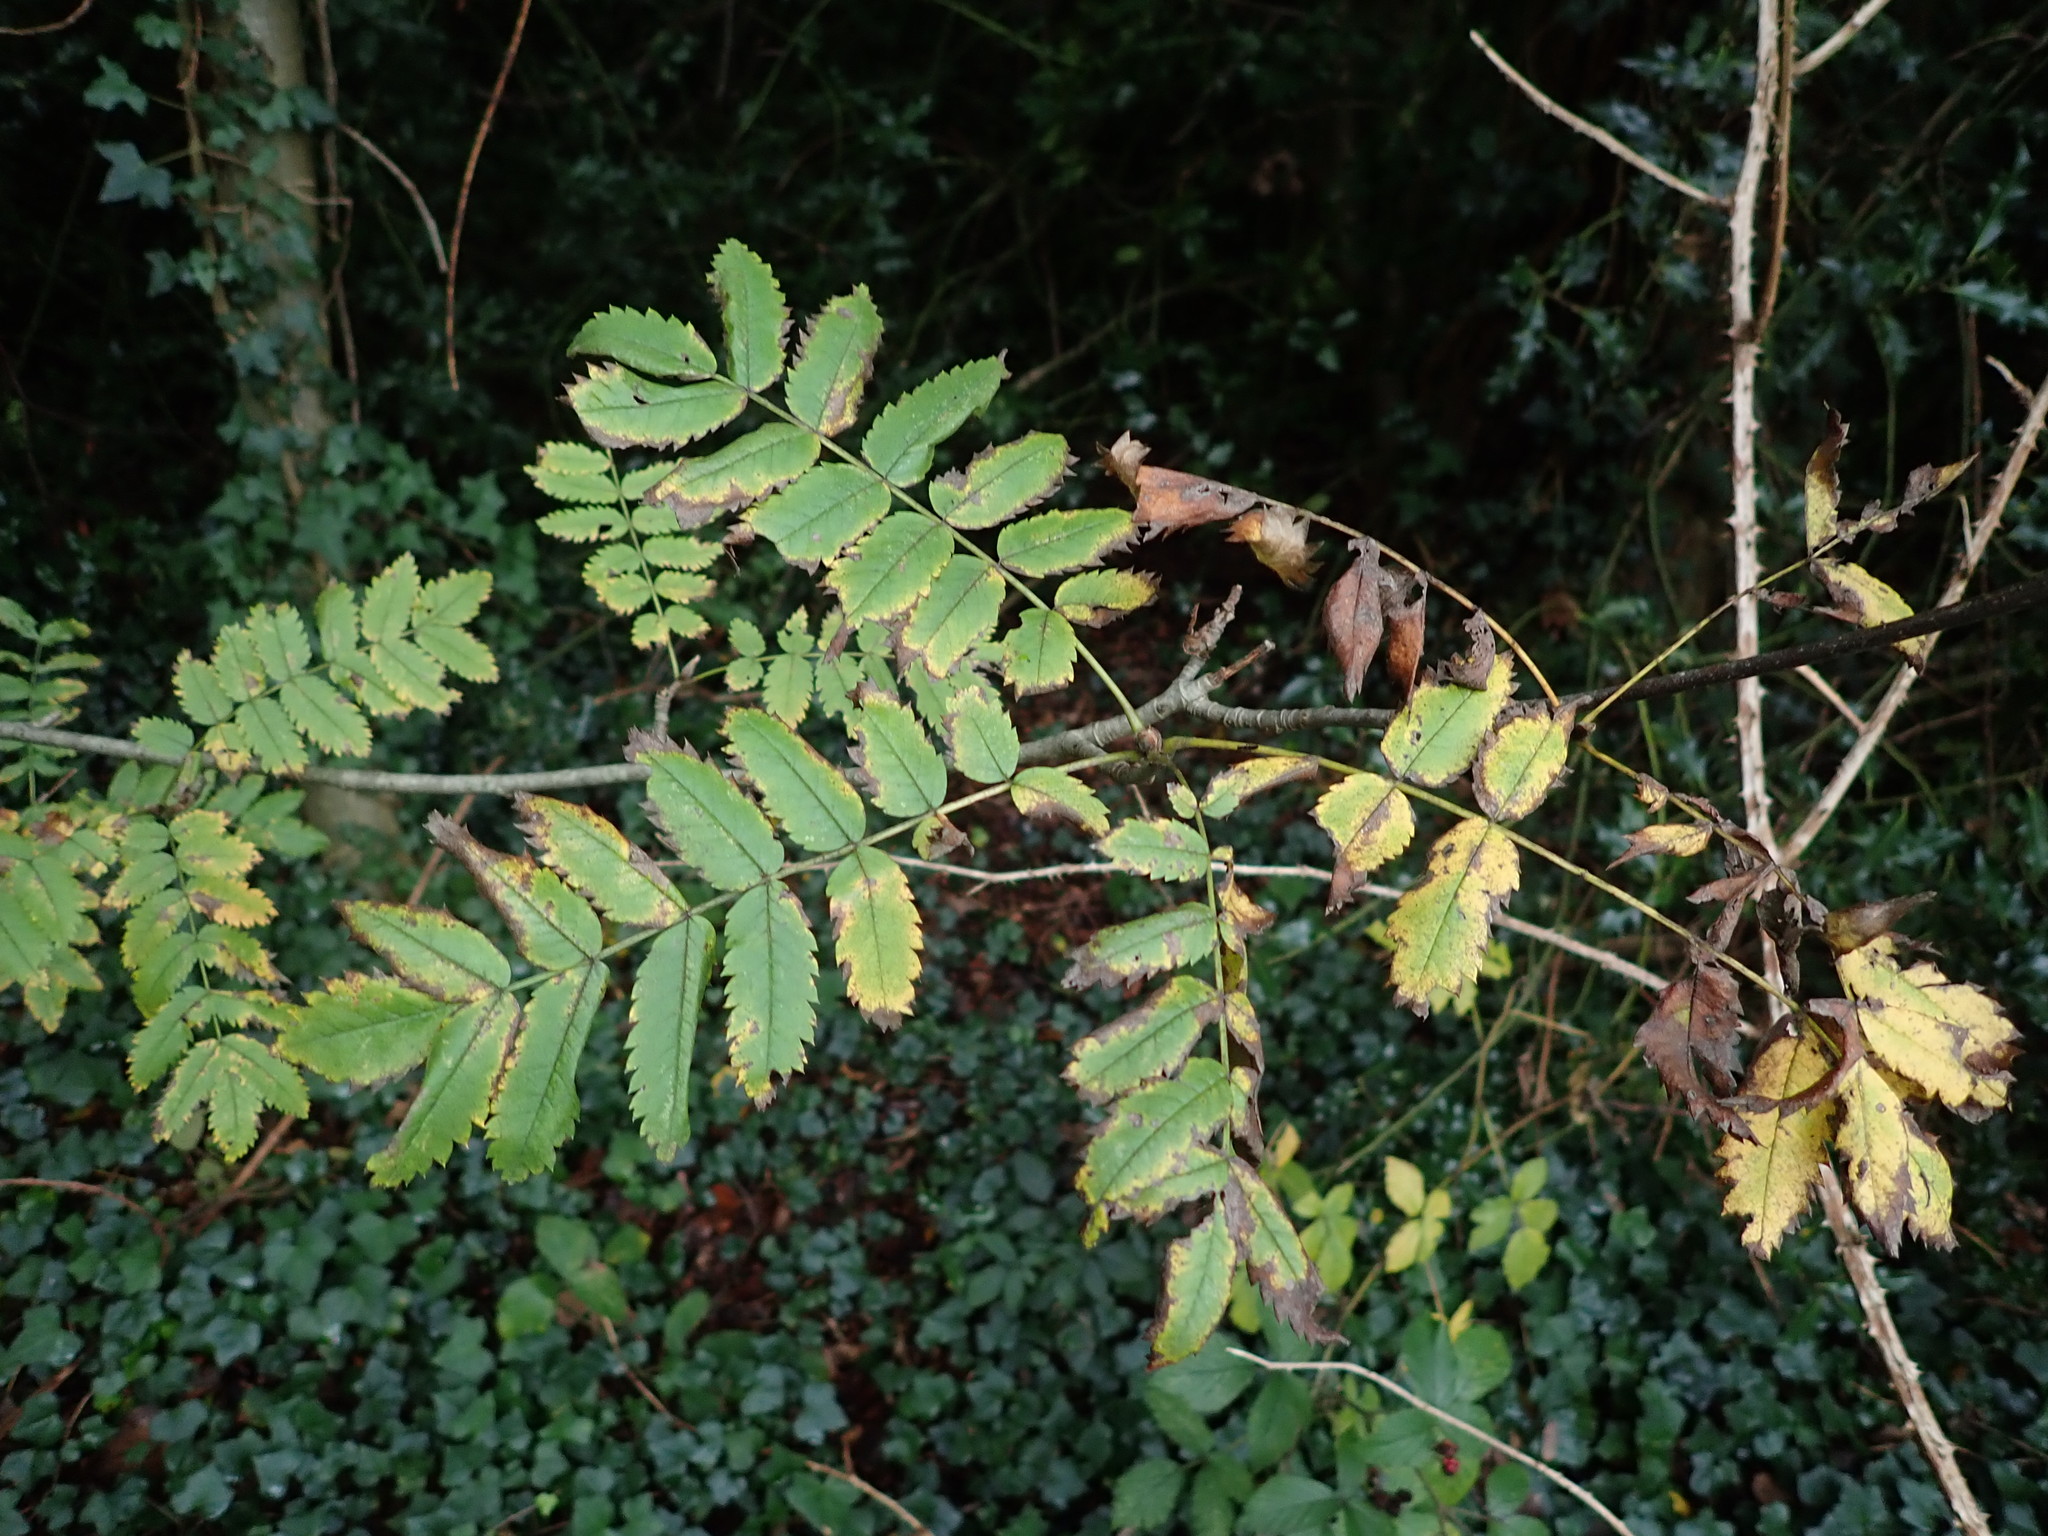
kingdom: Plantae
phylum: Tracheophyta
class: Magnoliopsida
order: Rosales
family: Rosaceae
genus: Sorbus
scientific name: Sorbus aucuparia
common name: Rowan
